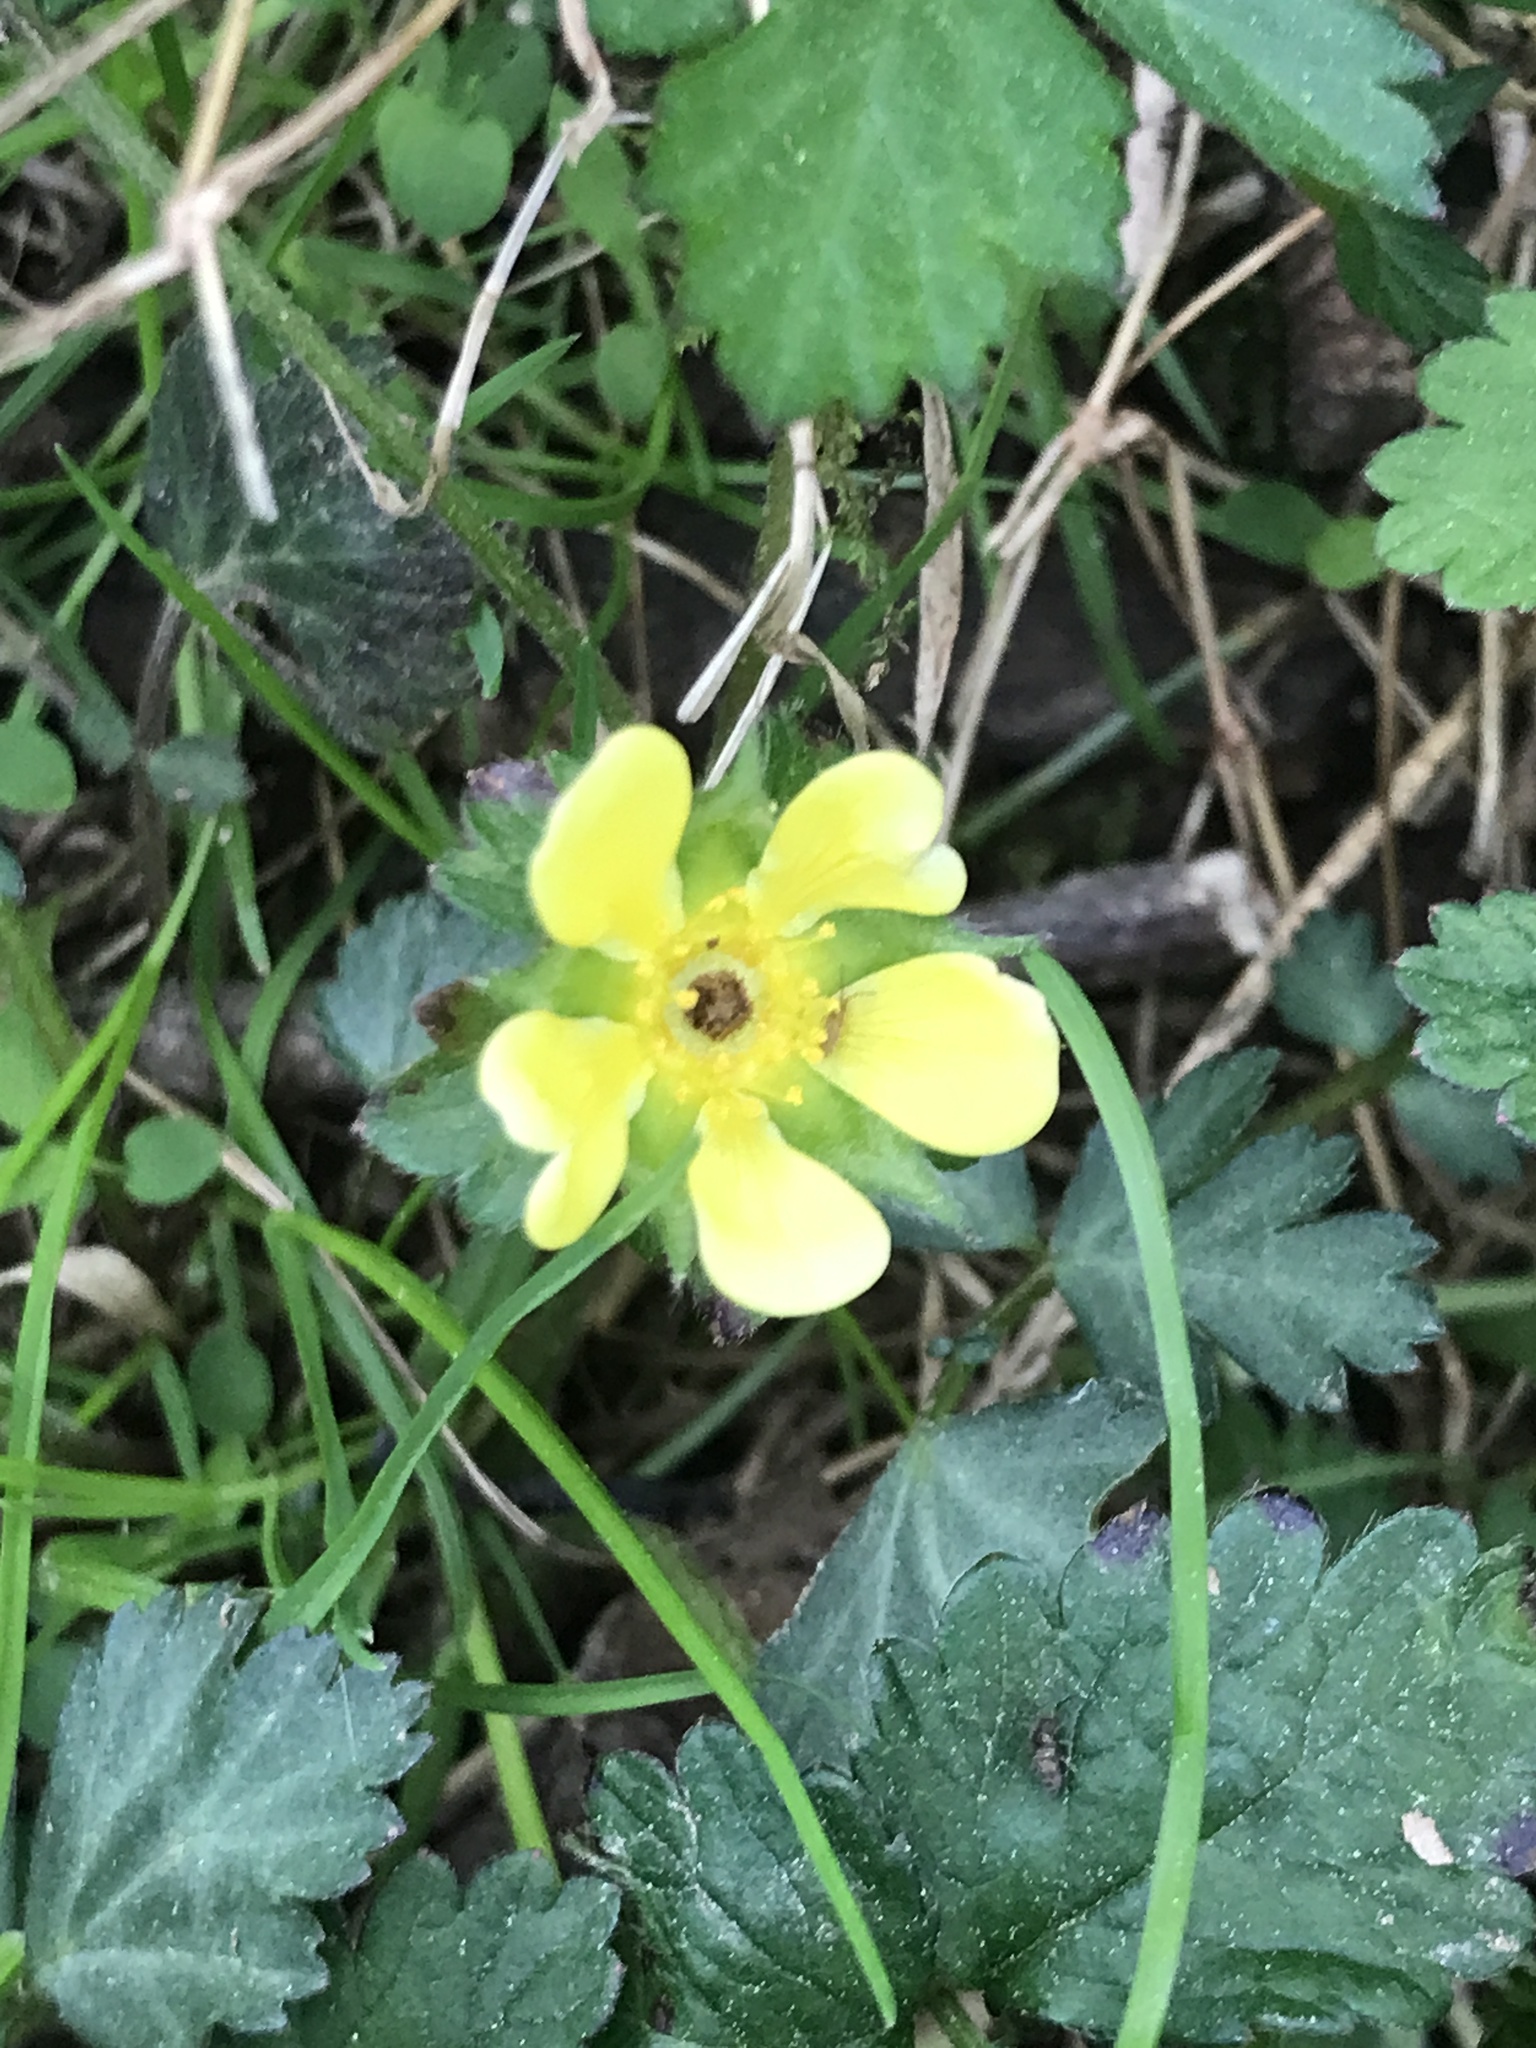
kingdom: Plantae
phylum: Tracheophyta
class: Magnoliopsida
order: Rosales
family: Rosaceae
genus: Potentilla
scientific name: Potentilla indica
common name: Yellow-flowered strawberry
